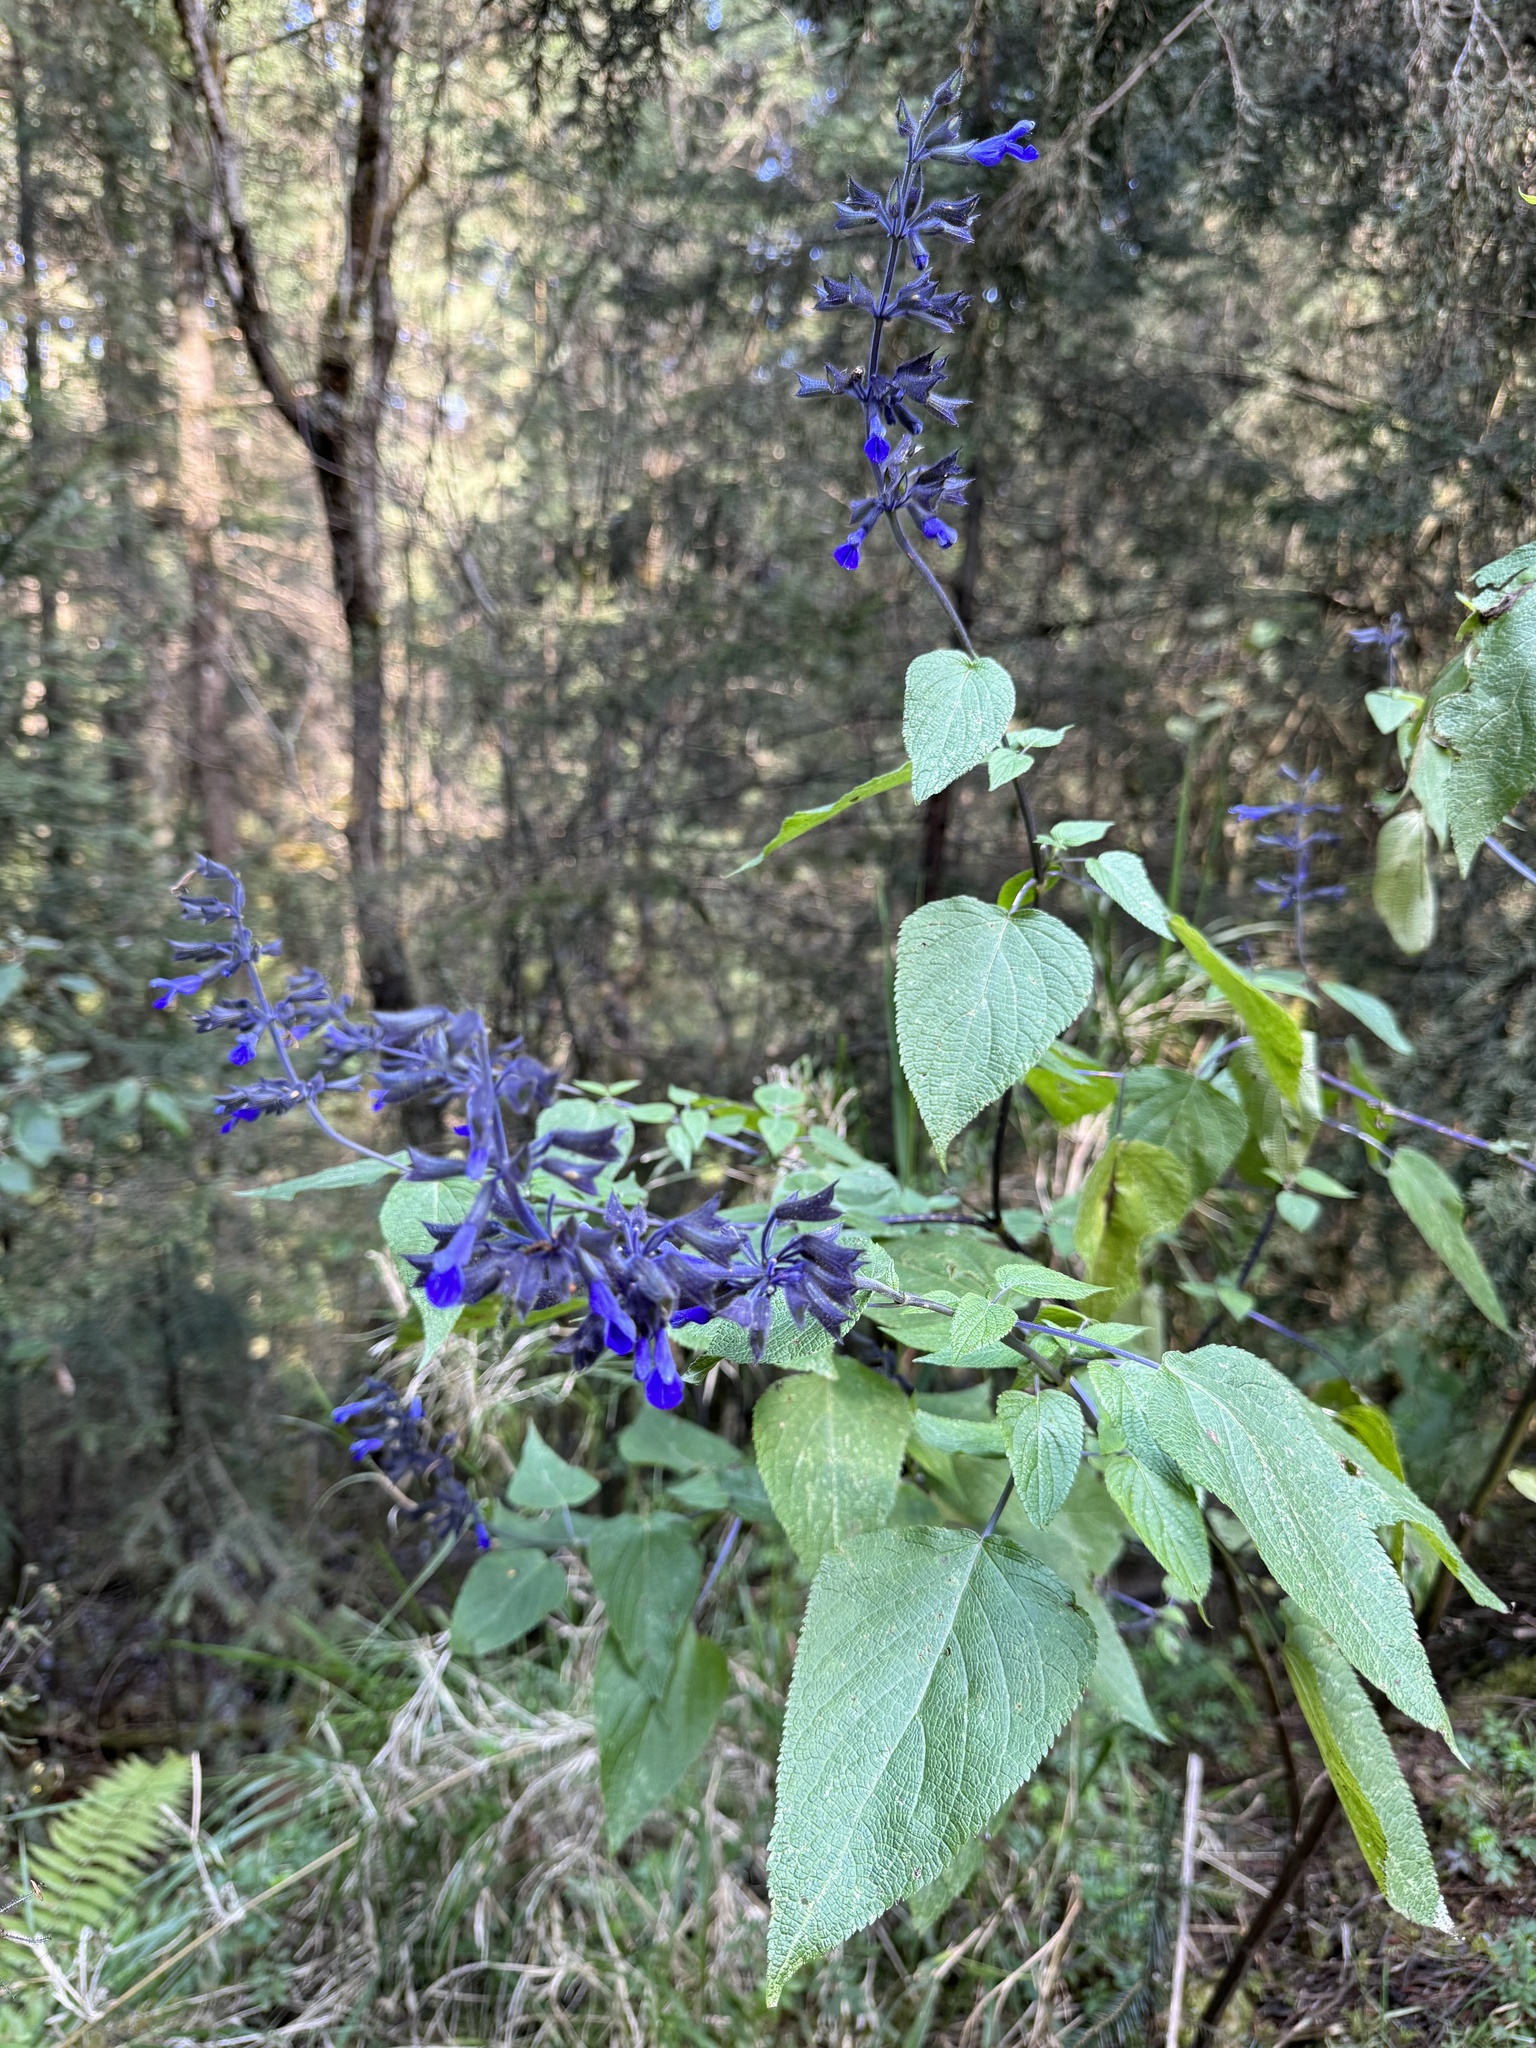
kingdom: Plantae
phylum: Tracheophyta
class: Magnoliopsida
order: Lamiales
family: Lamiaceae
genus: Salvia
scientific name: Salvia concolor
